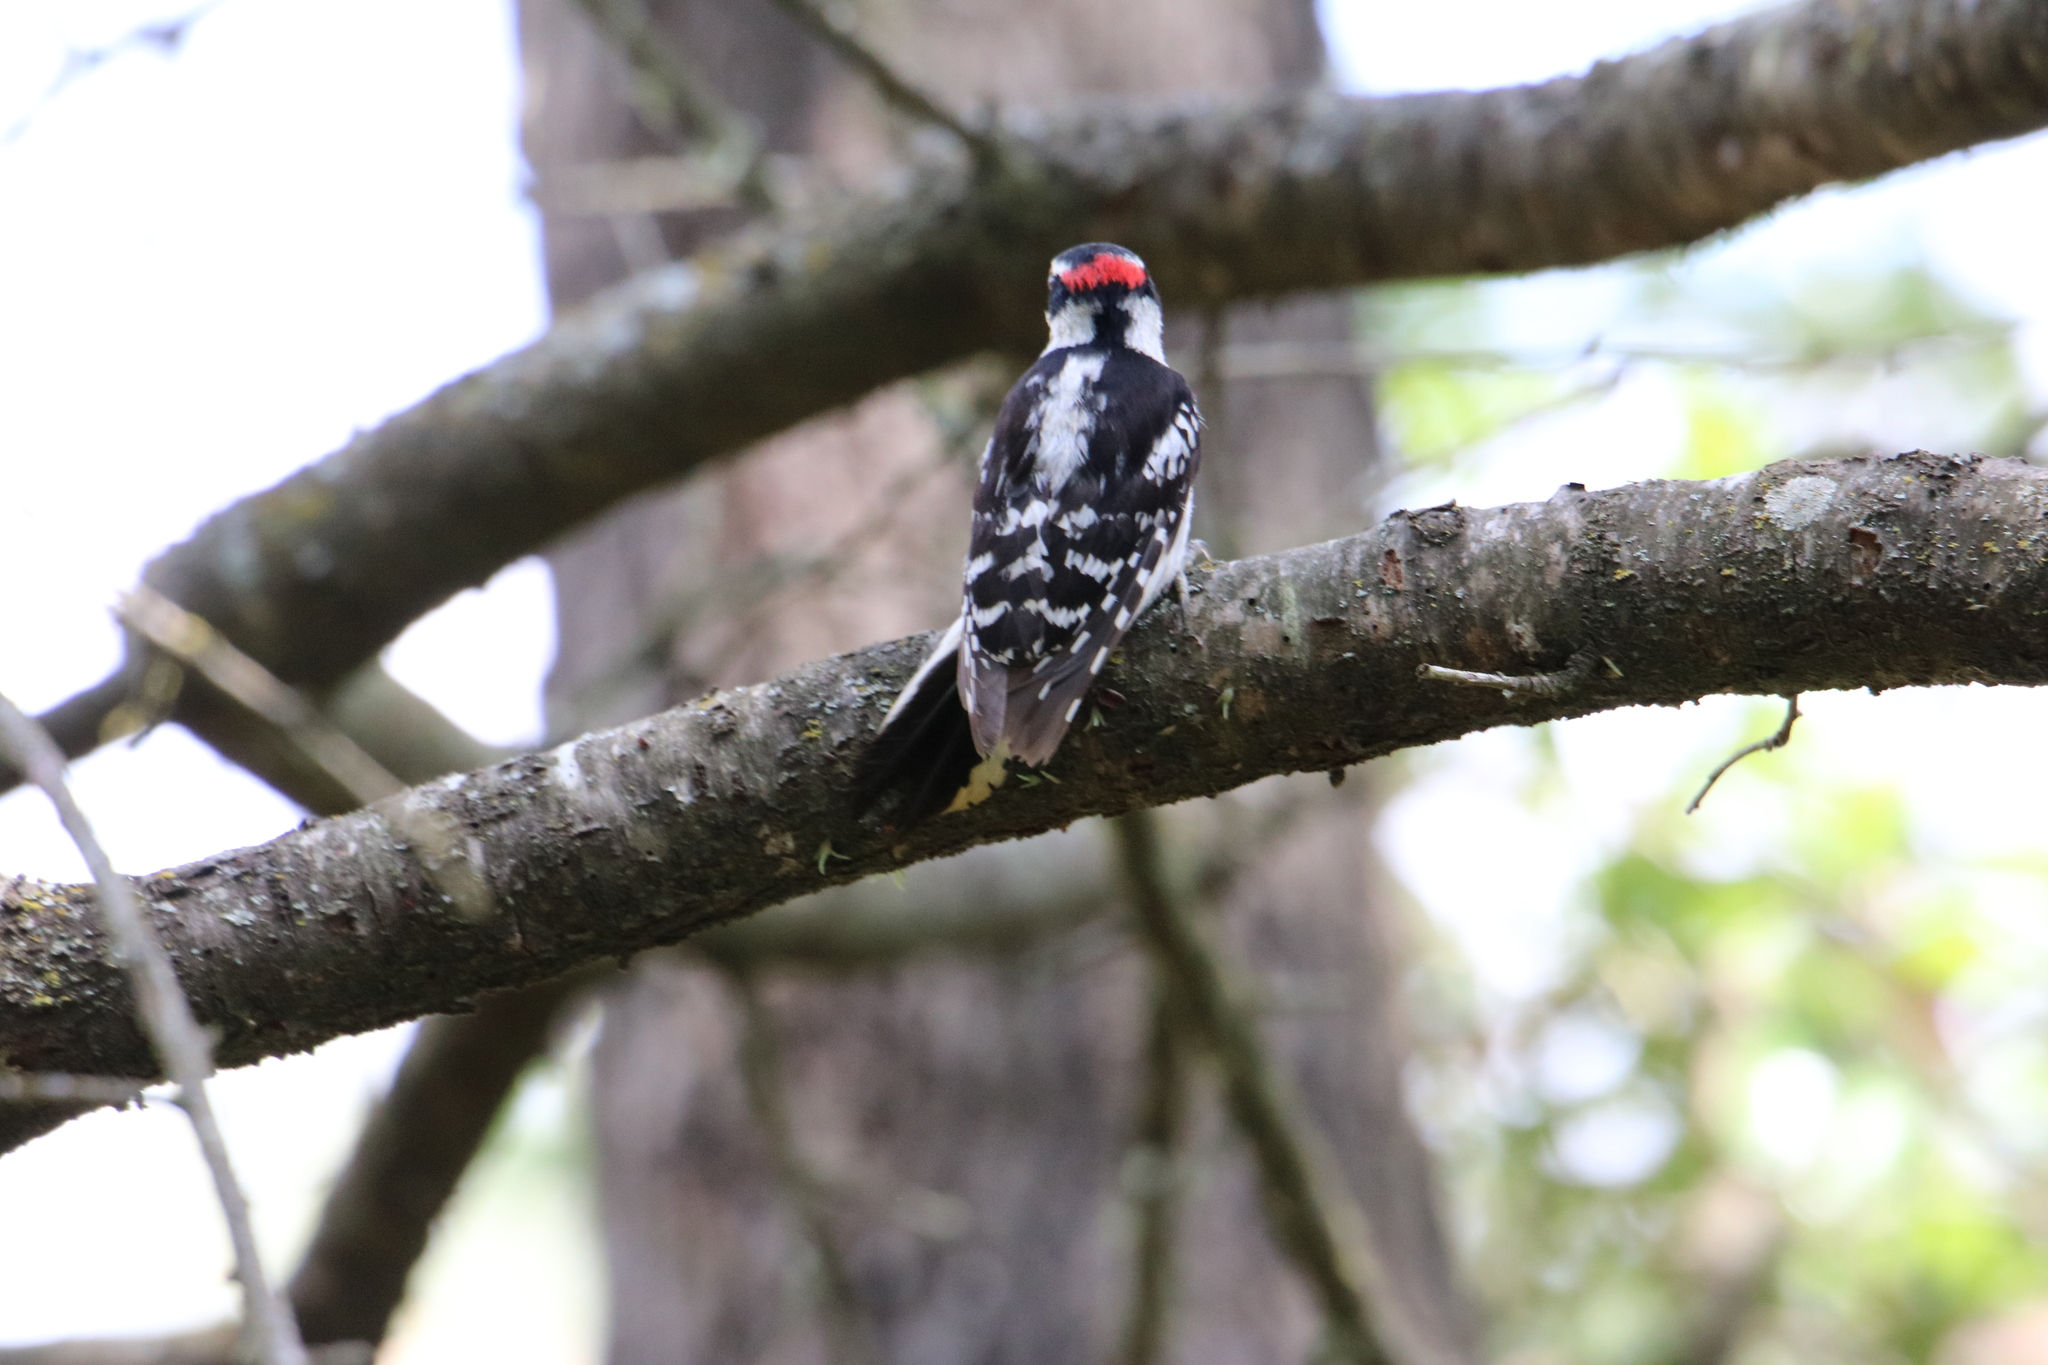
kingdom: Animalia
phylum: Chordata
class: Aves
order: Piciformes
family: Picidae
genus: Dryobates
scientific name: Dryobates pubescens
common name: Downy woodpecker
